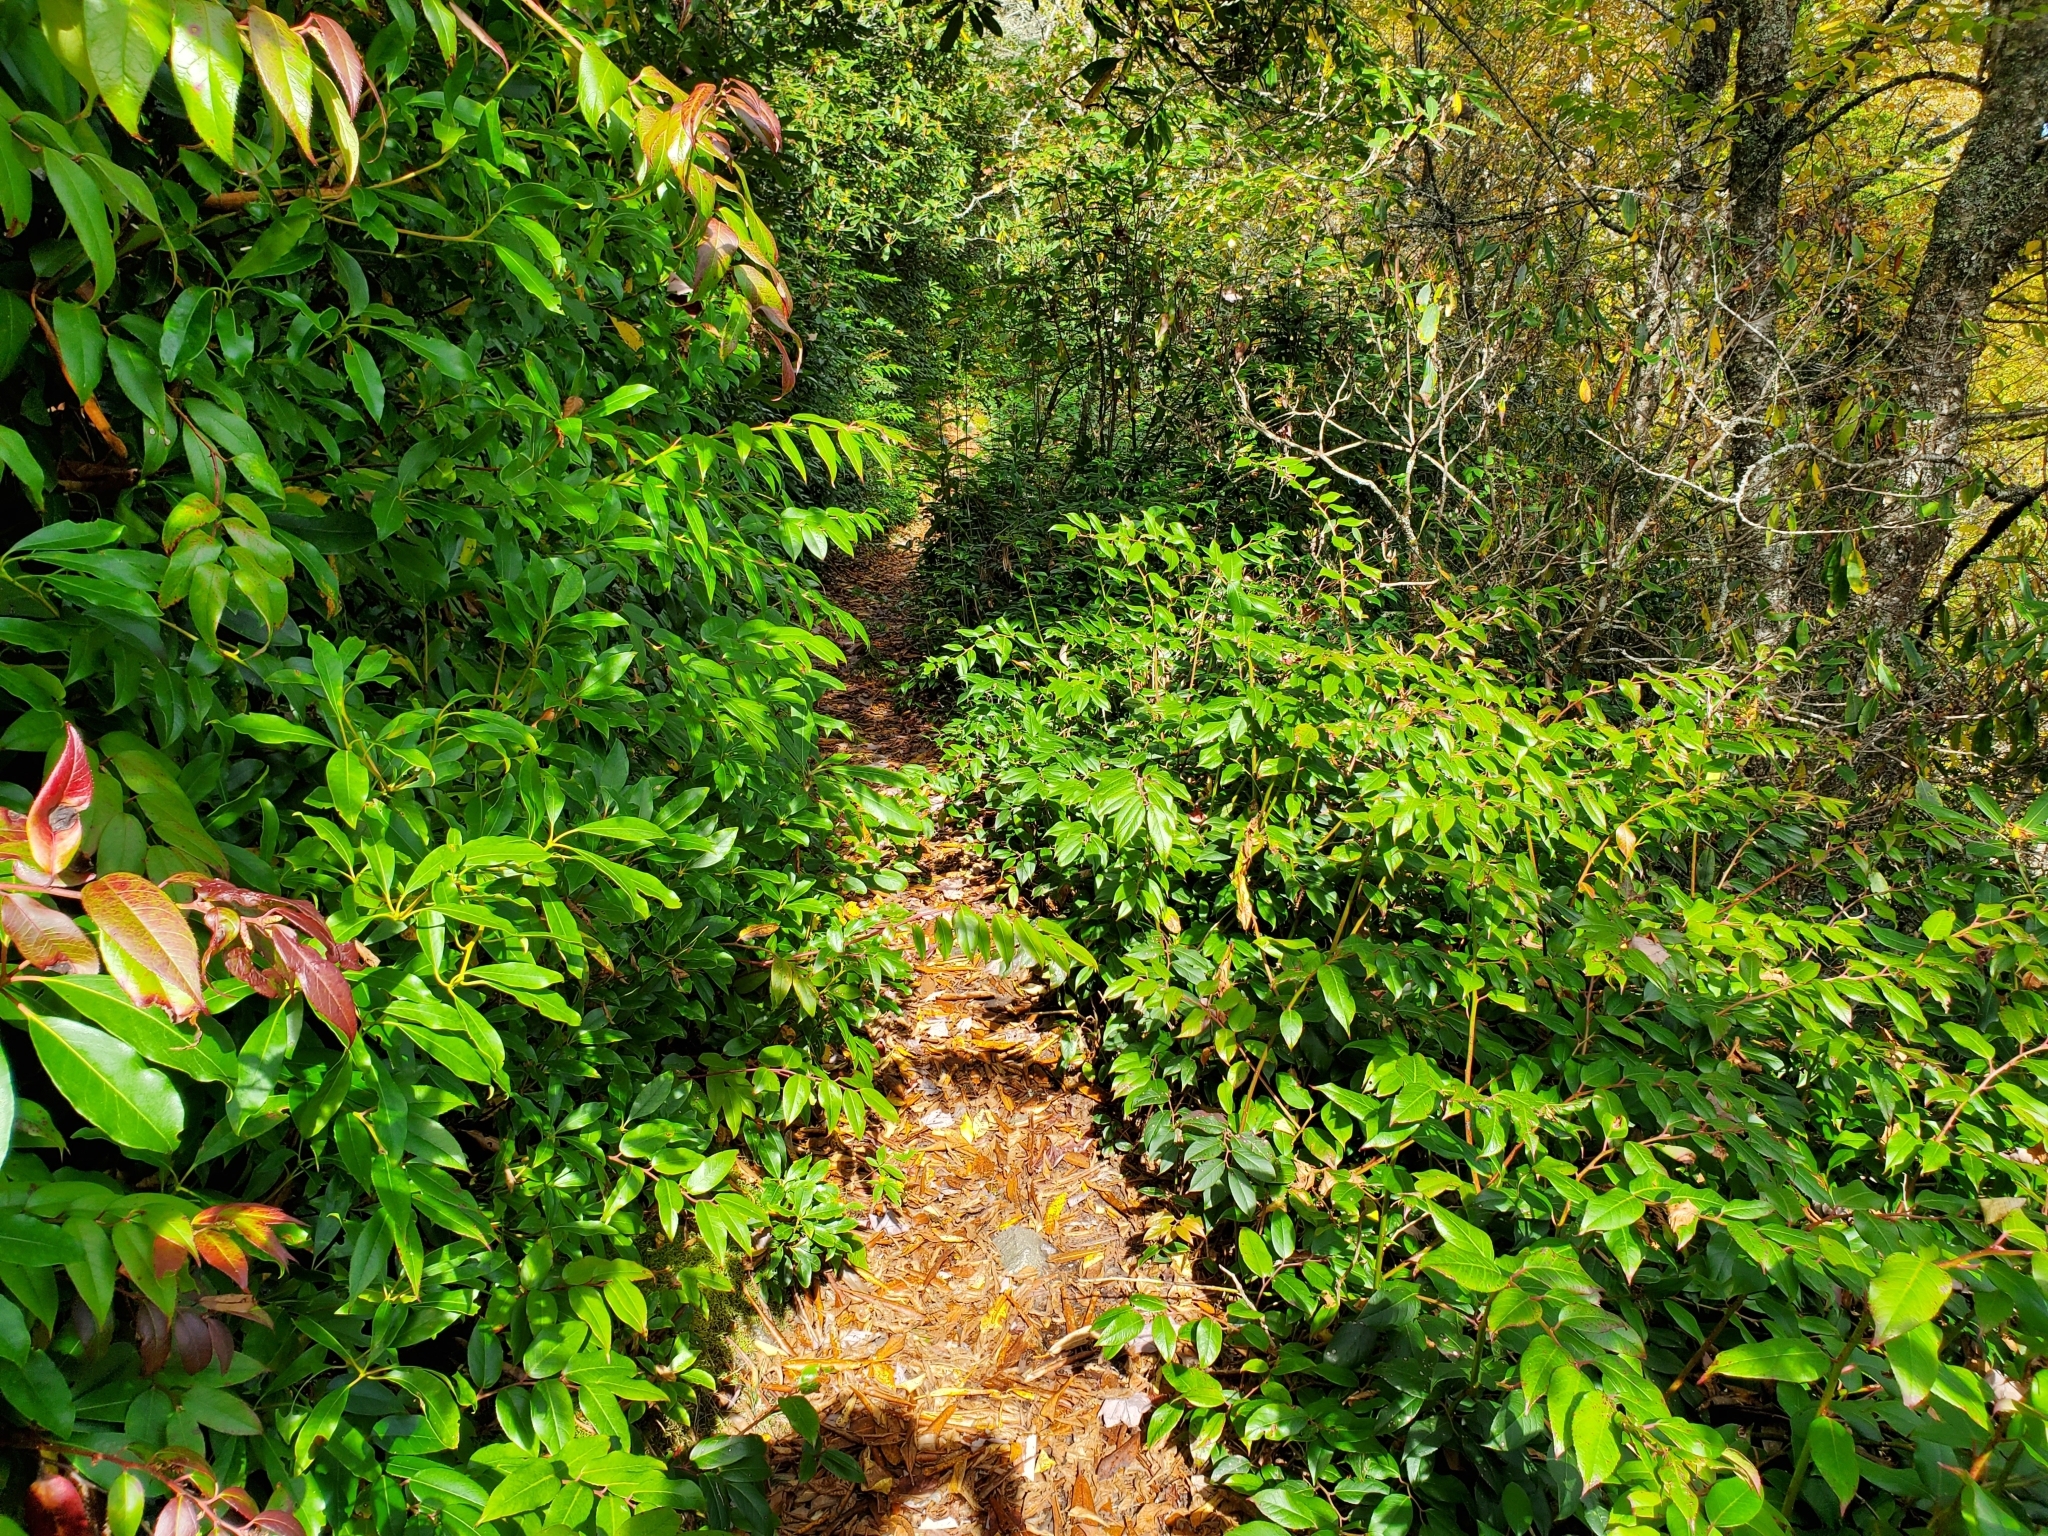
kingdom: Plantae
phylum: Tracheophyta
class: Magnoliopsida
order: Ericales
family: Ericaceae
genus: Leucothoe
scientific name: Leucothoe fontanesiana
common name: Fetterbush
